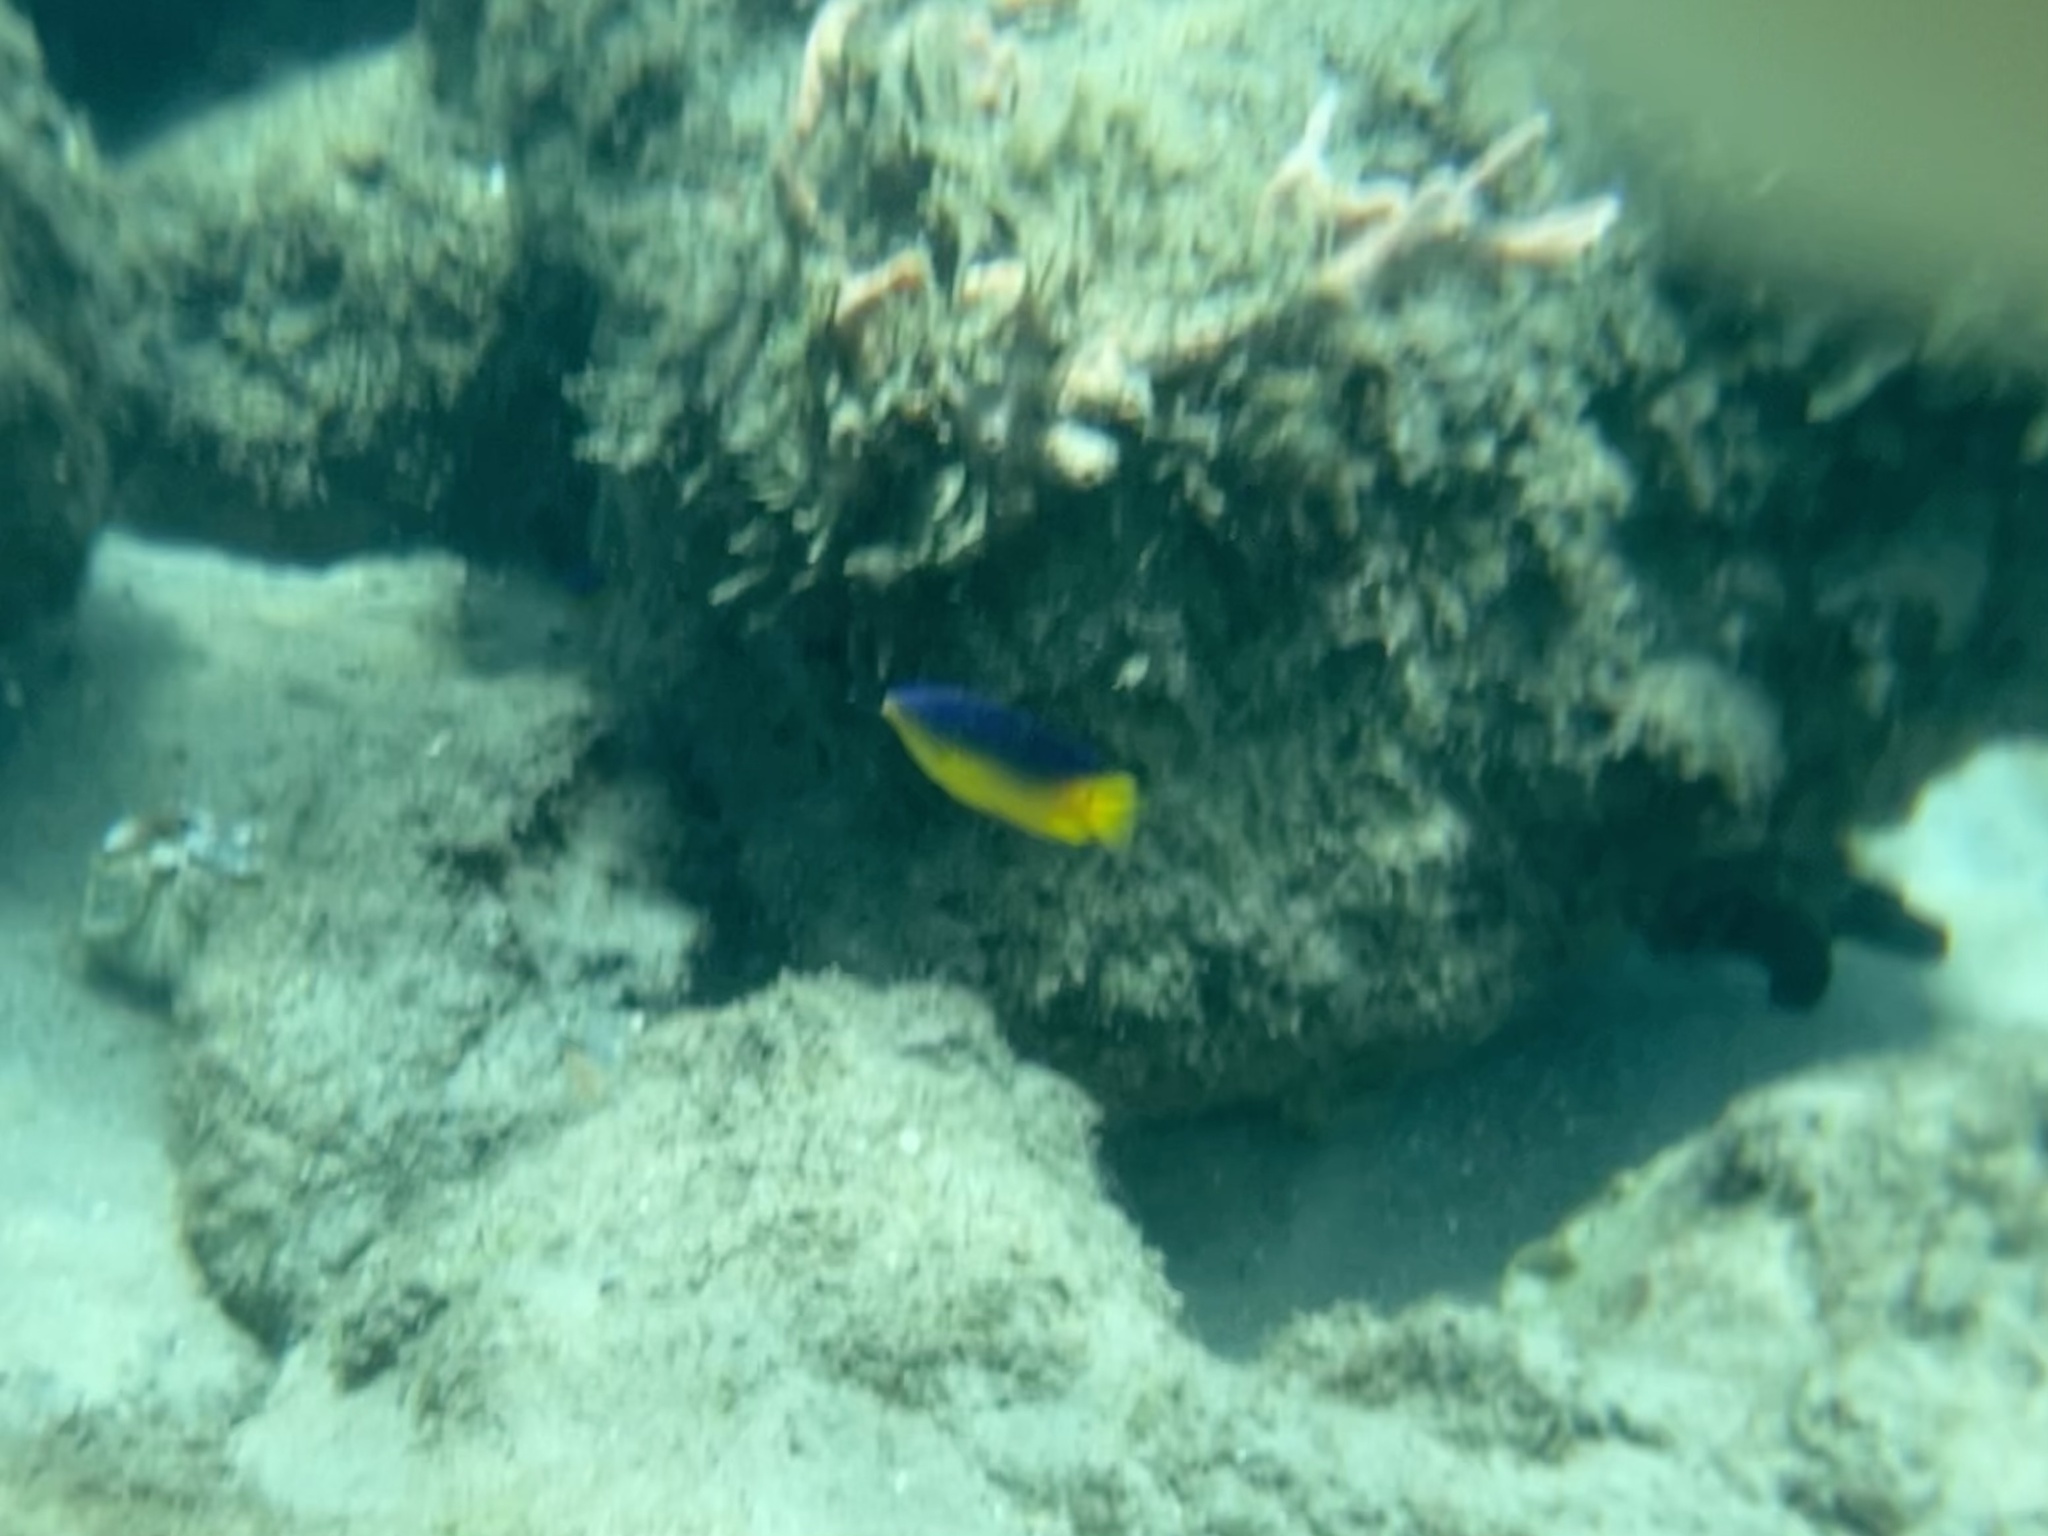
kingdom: Animalia
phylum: Chordata
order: Perciformes
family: Pomacentridae
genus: Stegastes
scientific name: Stegastes xanthurus
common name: Cocoa damselfish
